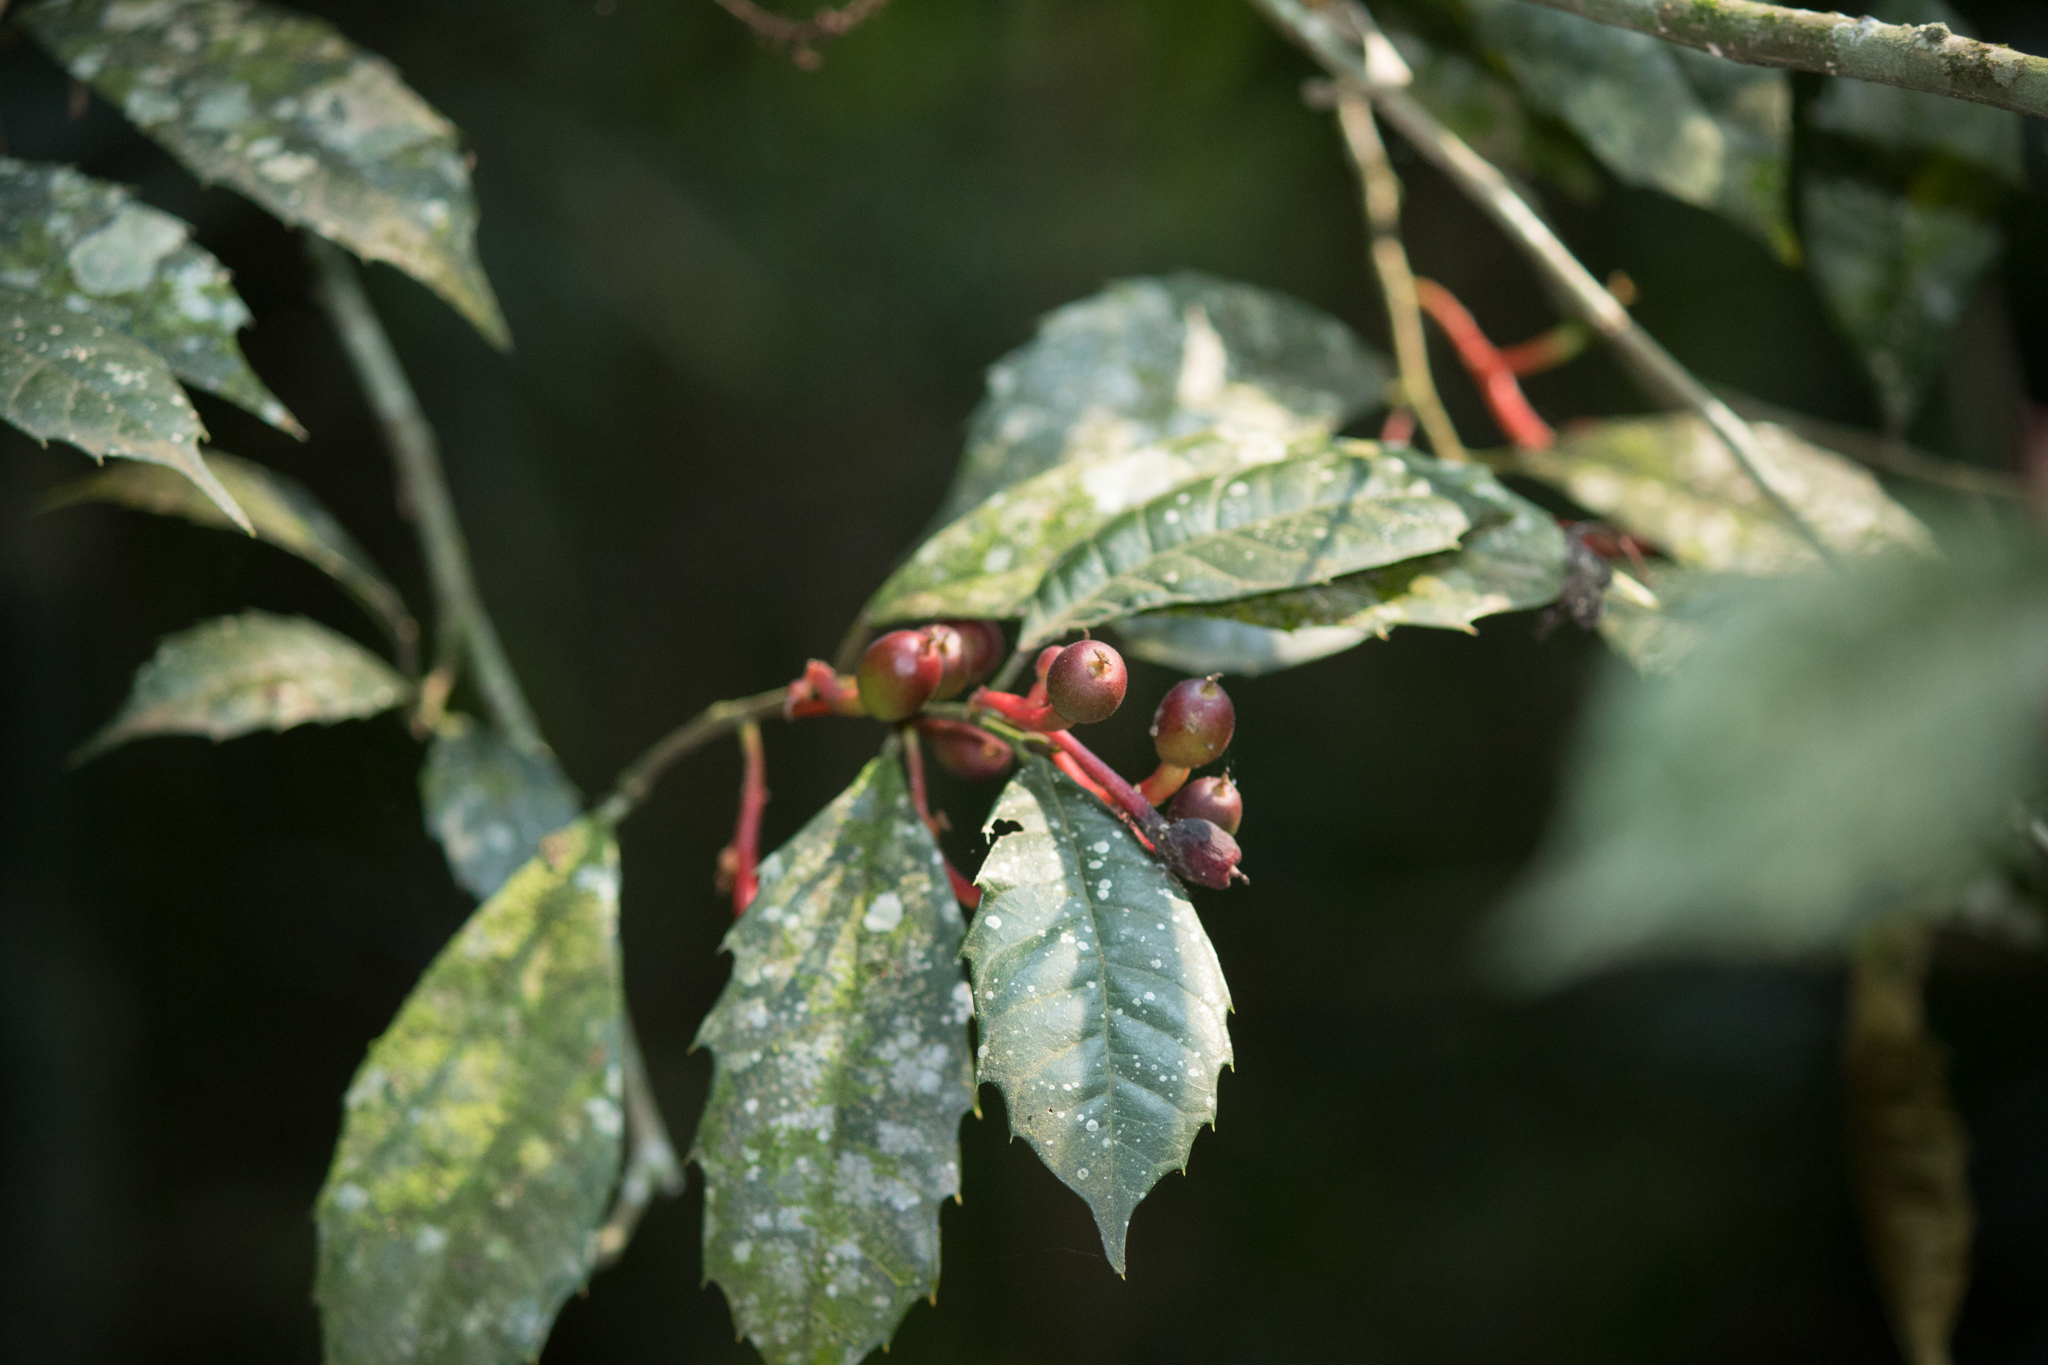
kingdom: Plantae
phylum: Tracheophyta
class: Magnoliopsida
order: Rosales
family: Moraceae
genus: Sorocea
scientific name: Sorocea bonplandii
